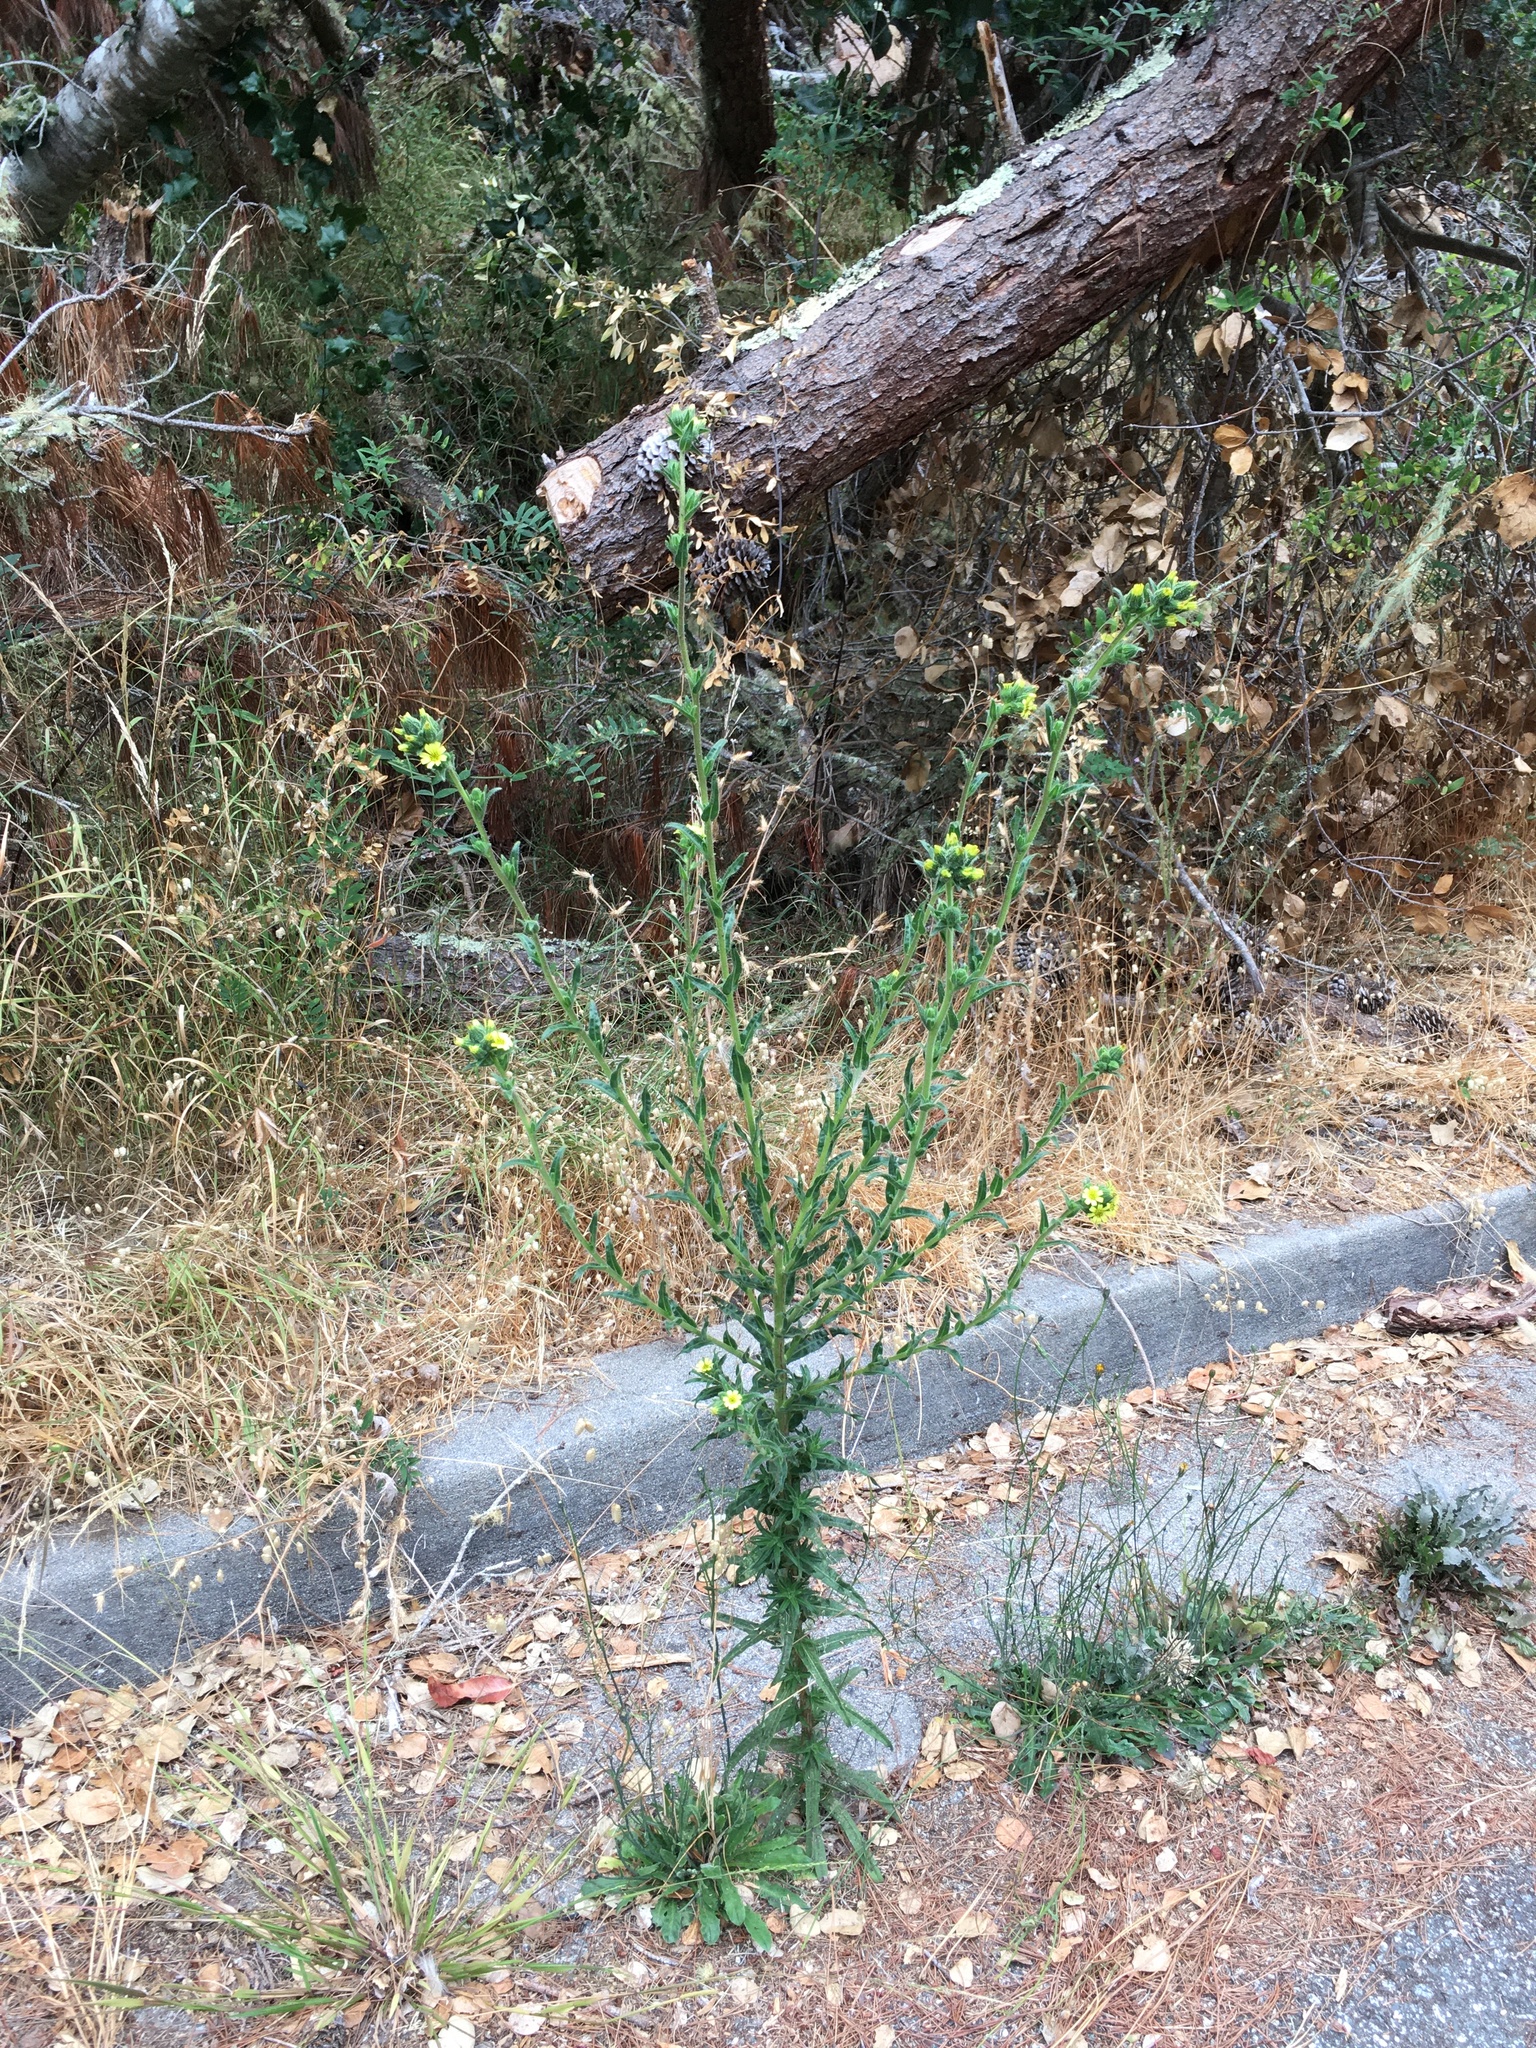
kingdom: Plantae
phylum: Tracheophyta
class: Magnoliopsida
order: Asterales
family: Asteraceae
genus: Madia
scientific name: Madia sativa
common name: Coast tarweed
